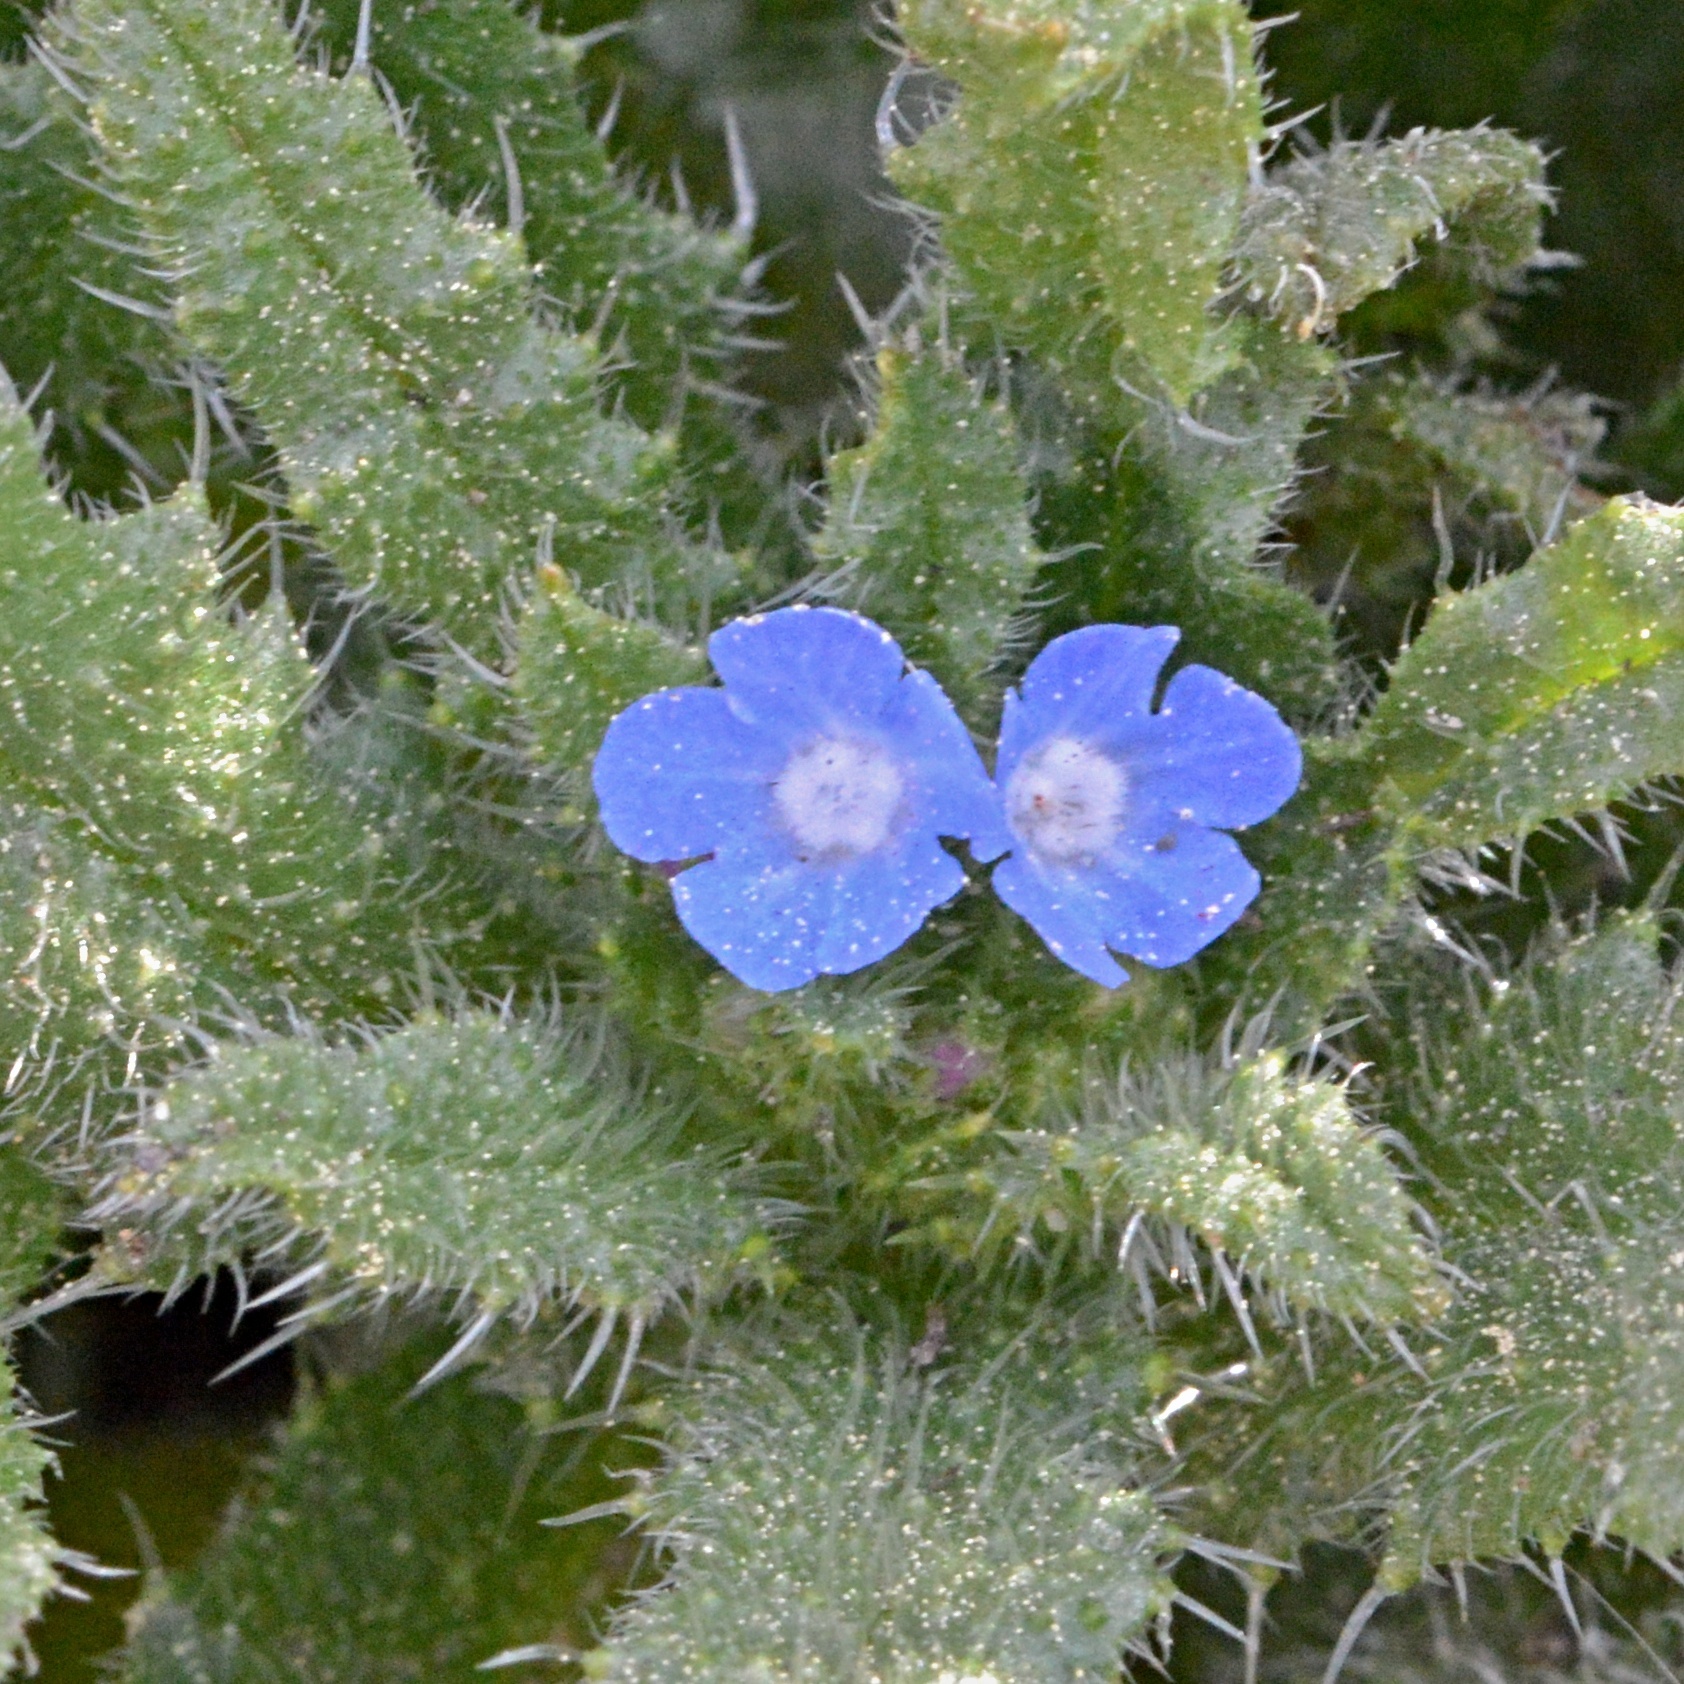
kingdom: Plantae
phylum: Tracheophyta
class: Magnoliopsida
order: Boraginales
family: Boraginaceae
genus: Lycopsis
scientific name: Lycopsis arvensis
